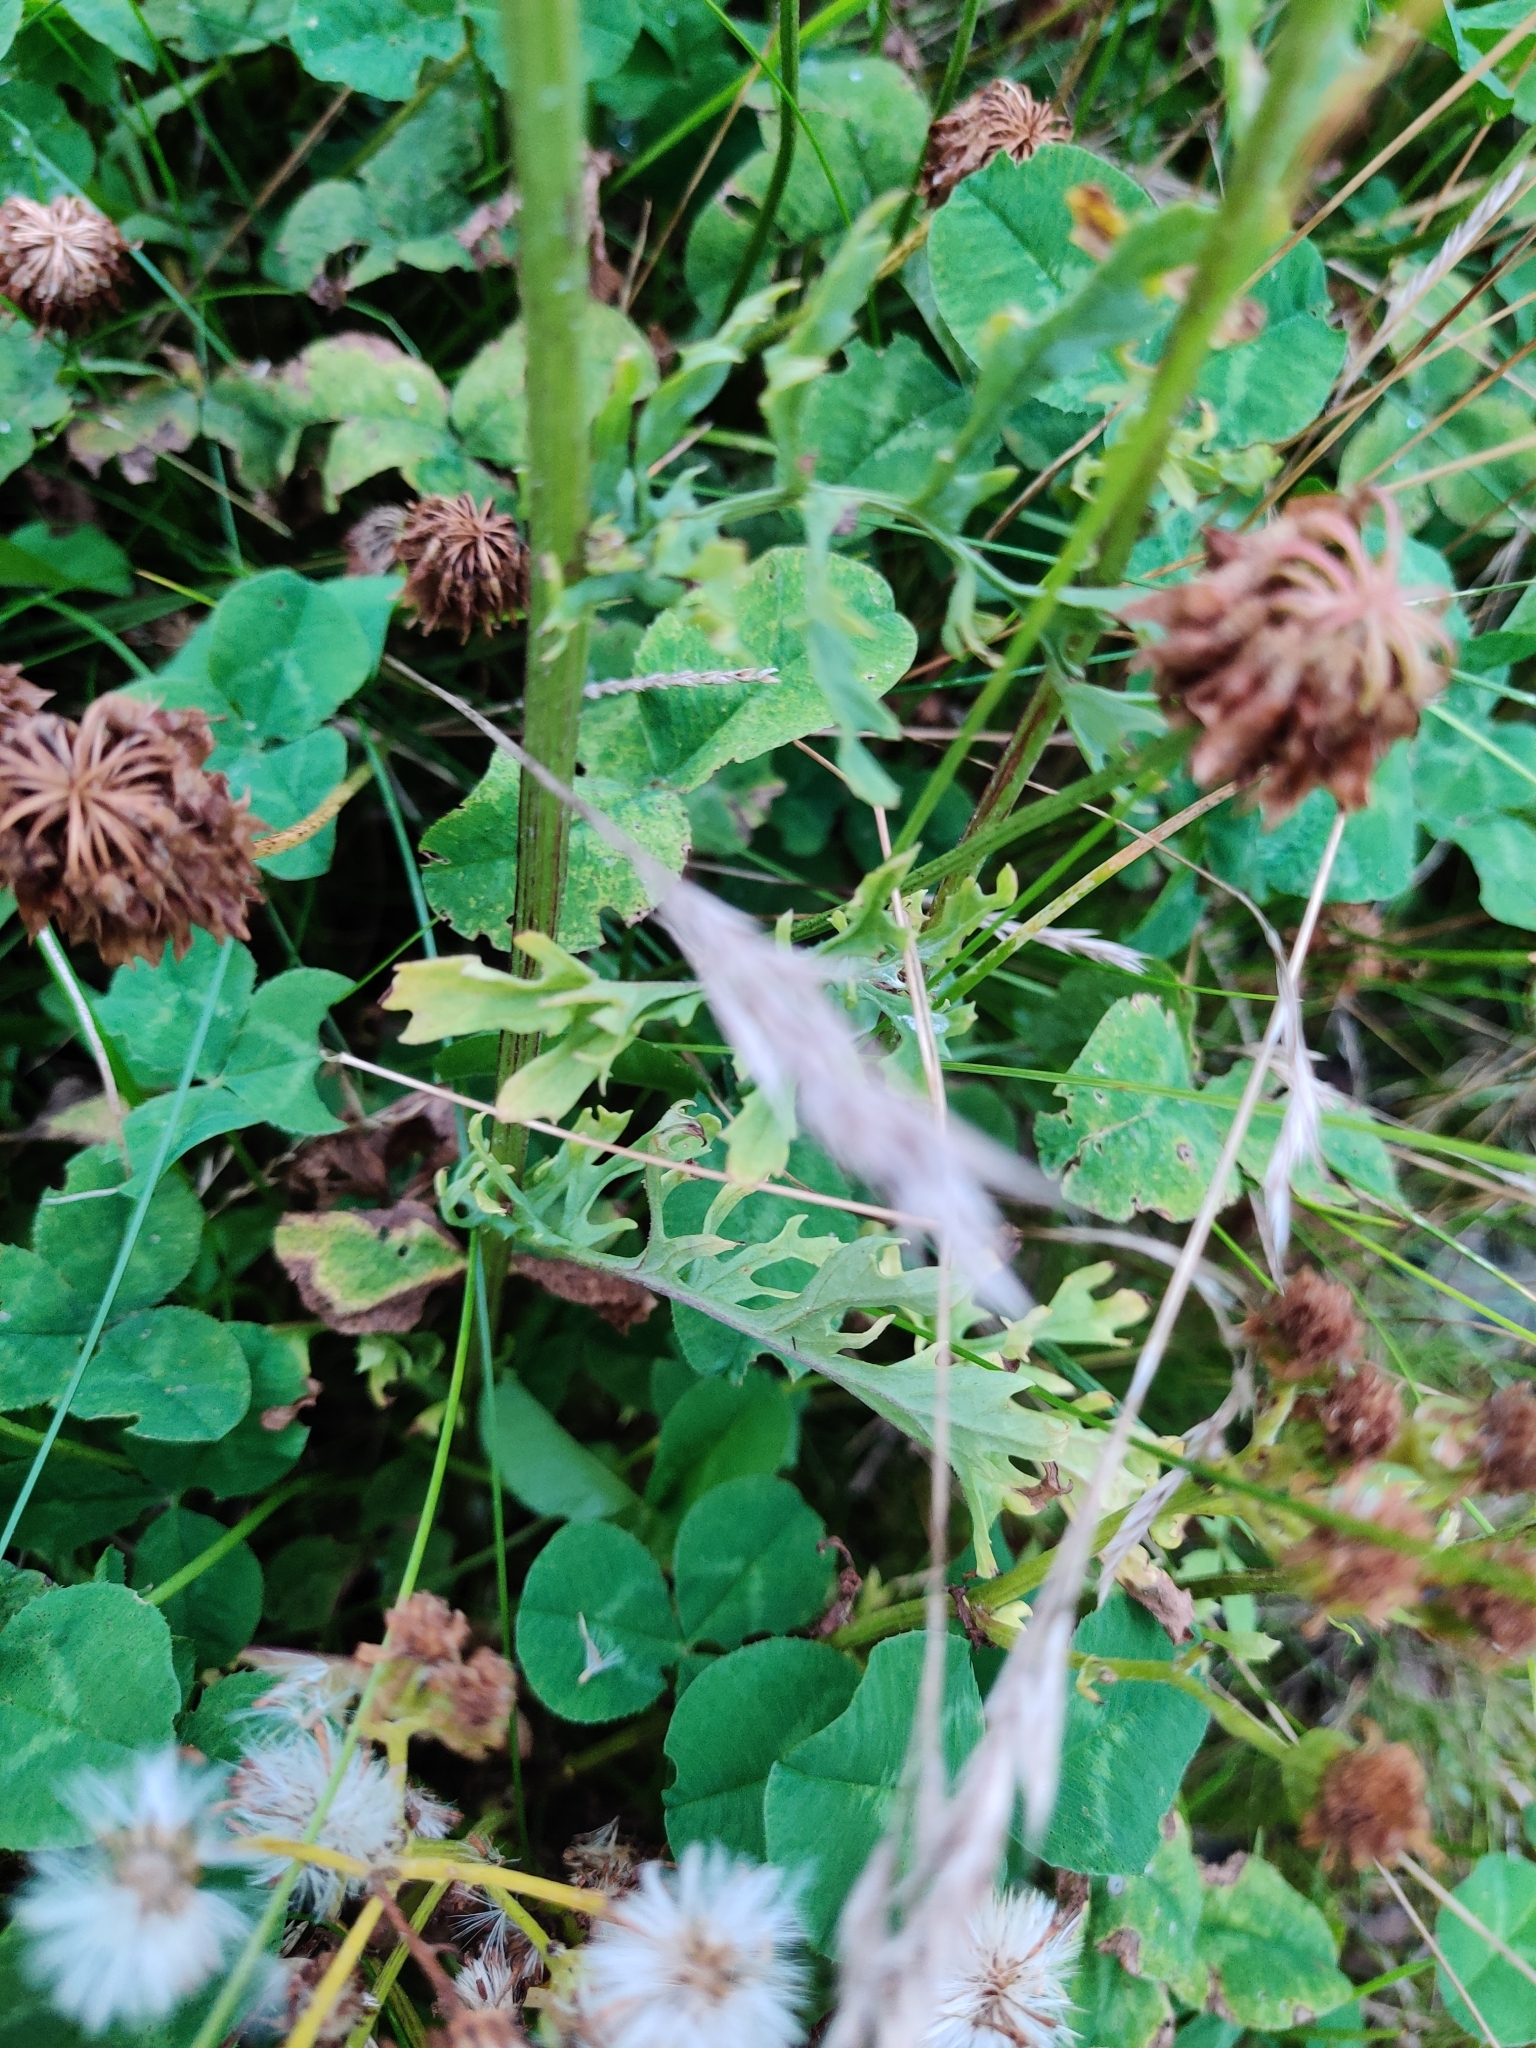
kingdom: Plantae
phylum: Tracheophyta
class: Magnoliopsida
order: Asterales
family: Asteraceae
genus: Jacobaea
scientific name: Jacobaea vulgaris
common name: Stinking willie
